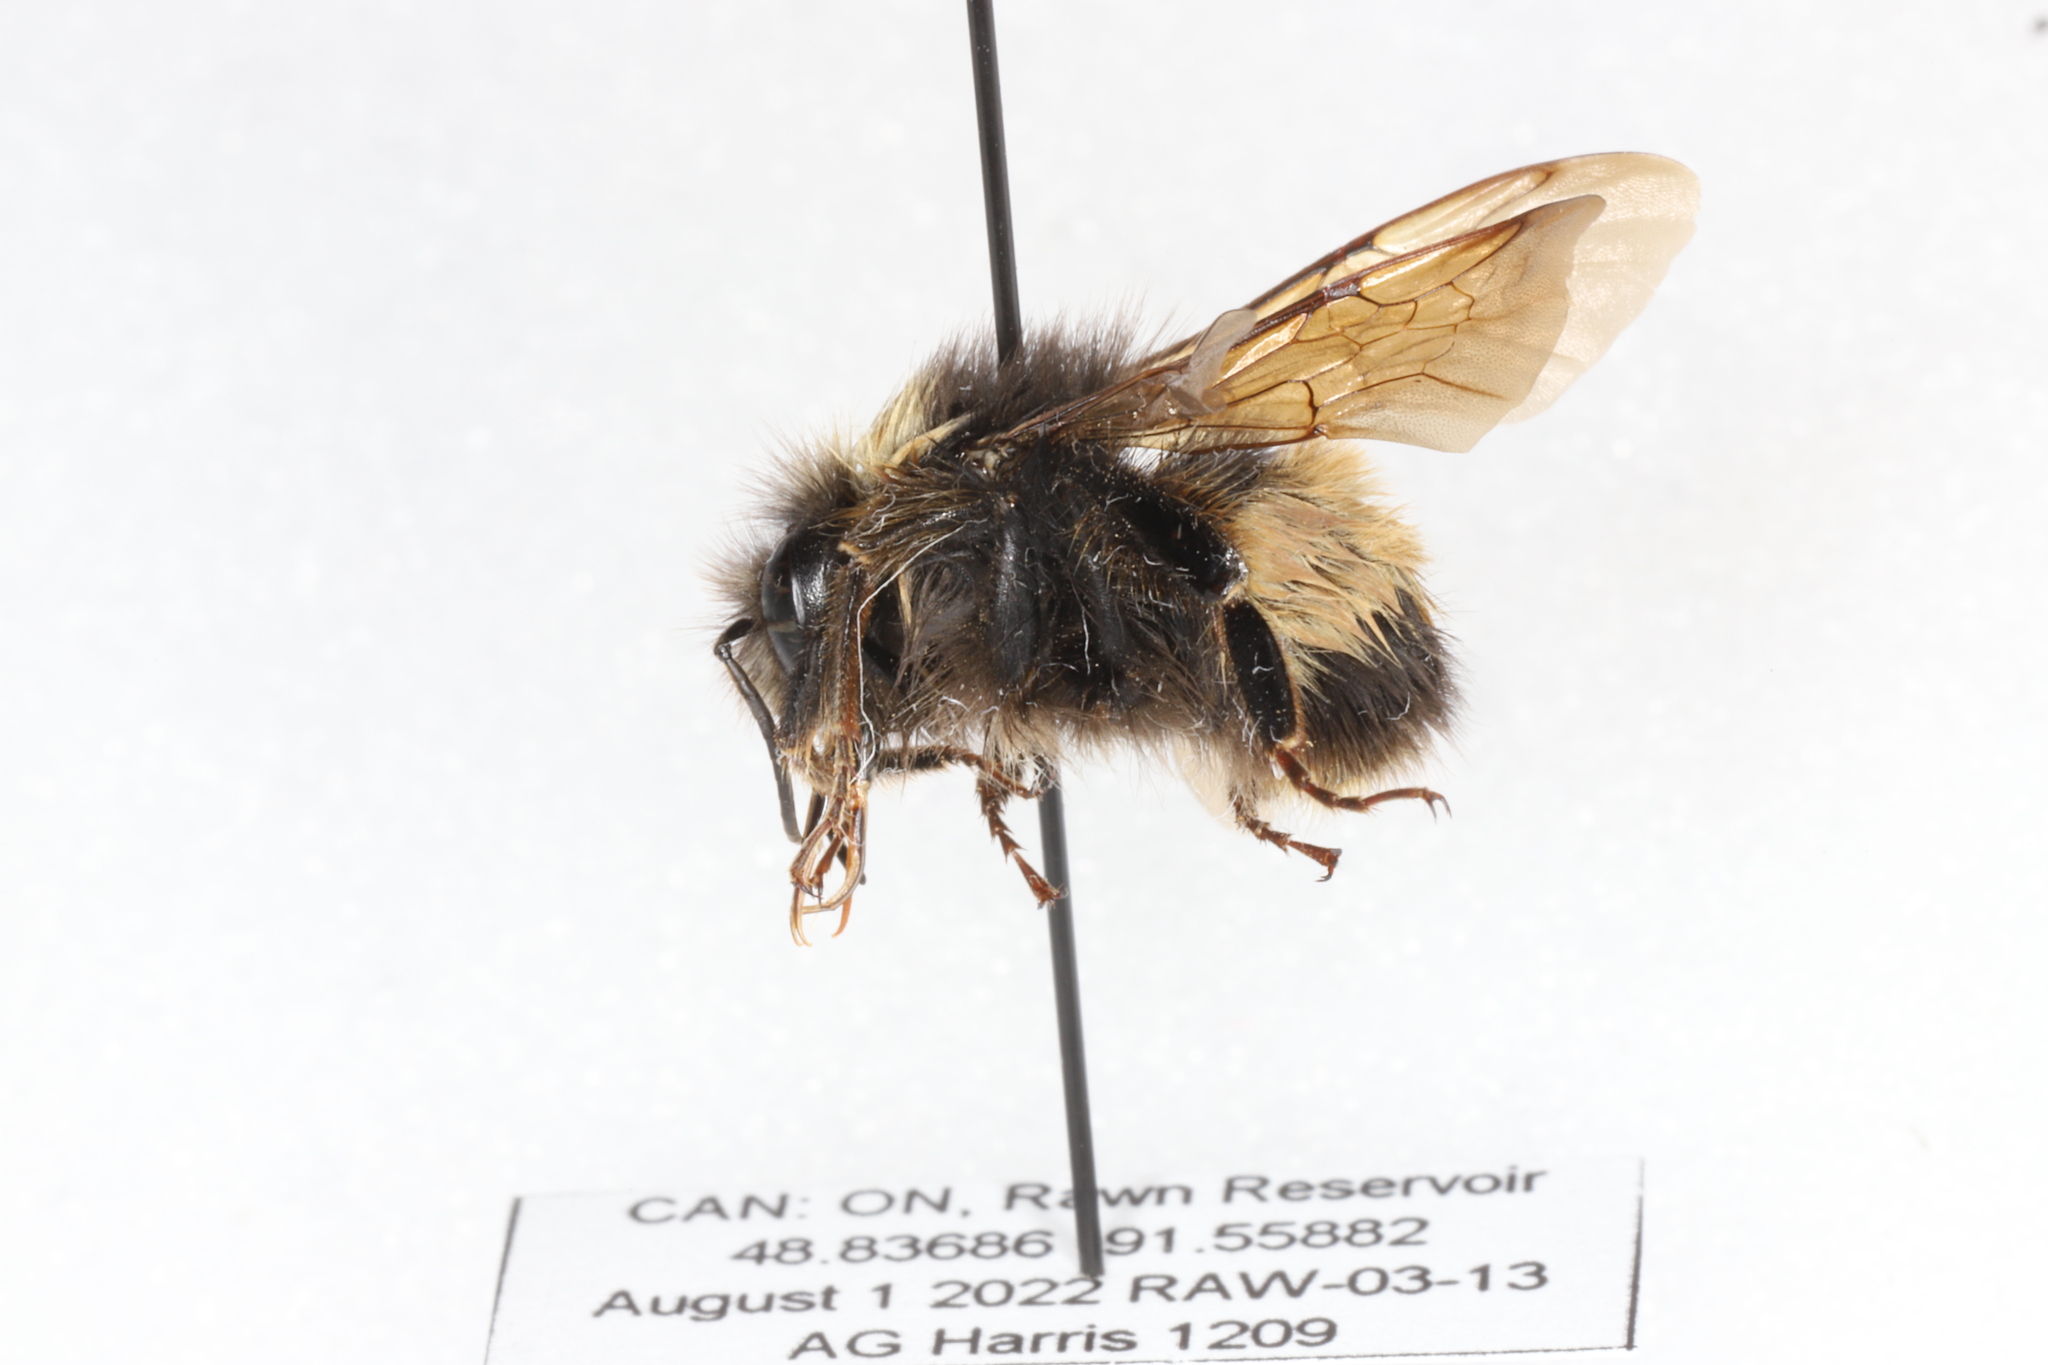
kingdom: Animalia
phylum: Arthropoda
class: Insecta
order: Hymenoptera
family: Apidae
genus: Bombus
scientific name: Bombus terricola
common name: Yellow-banded bumble bee
